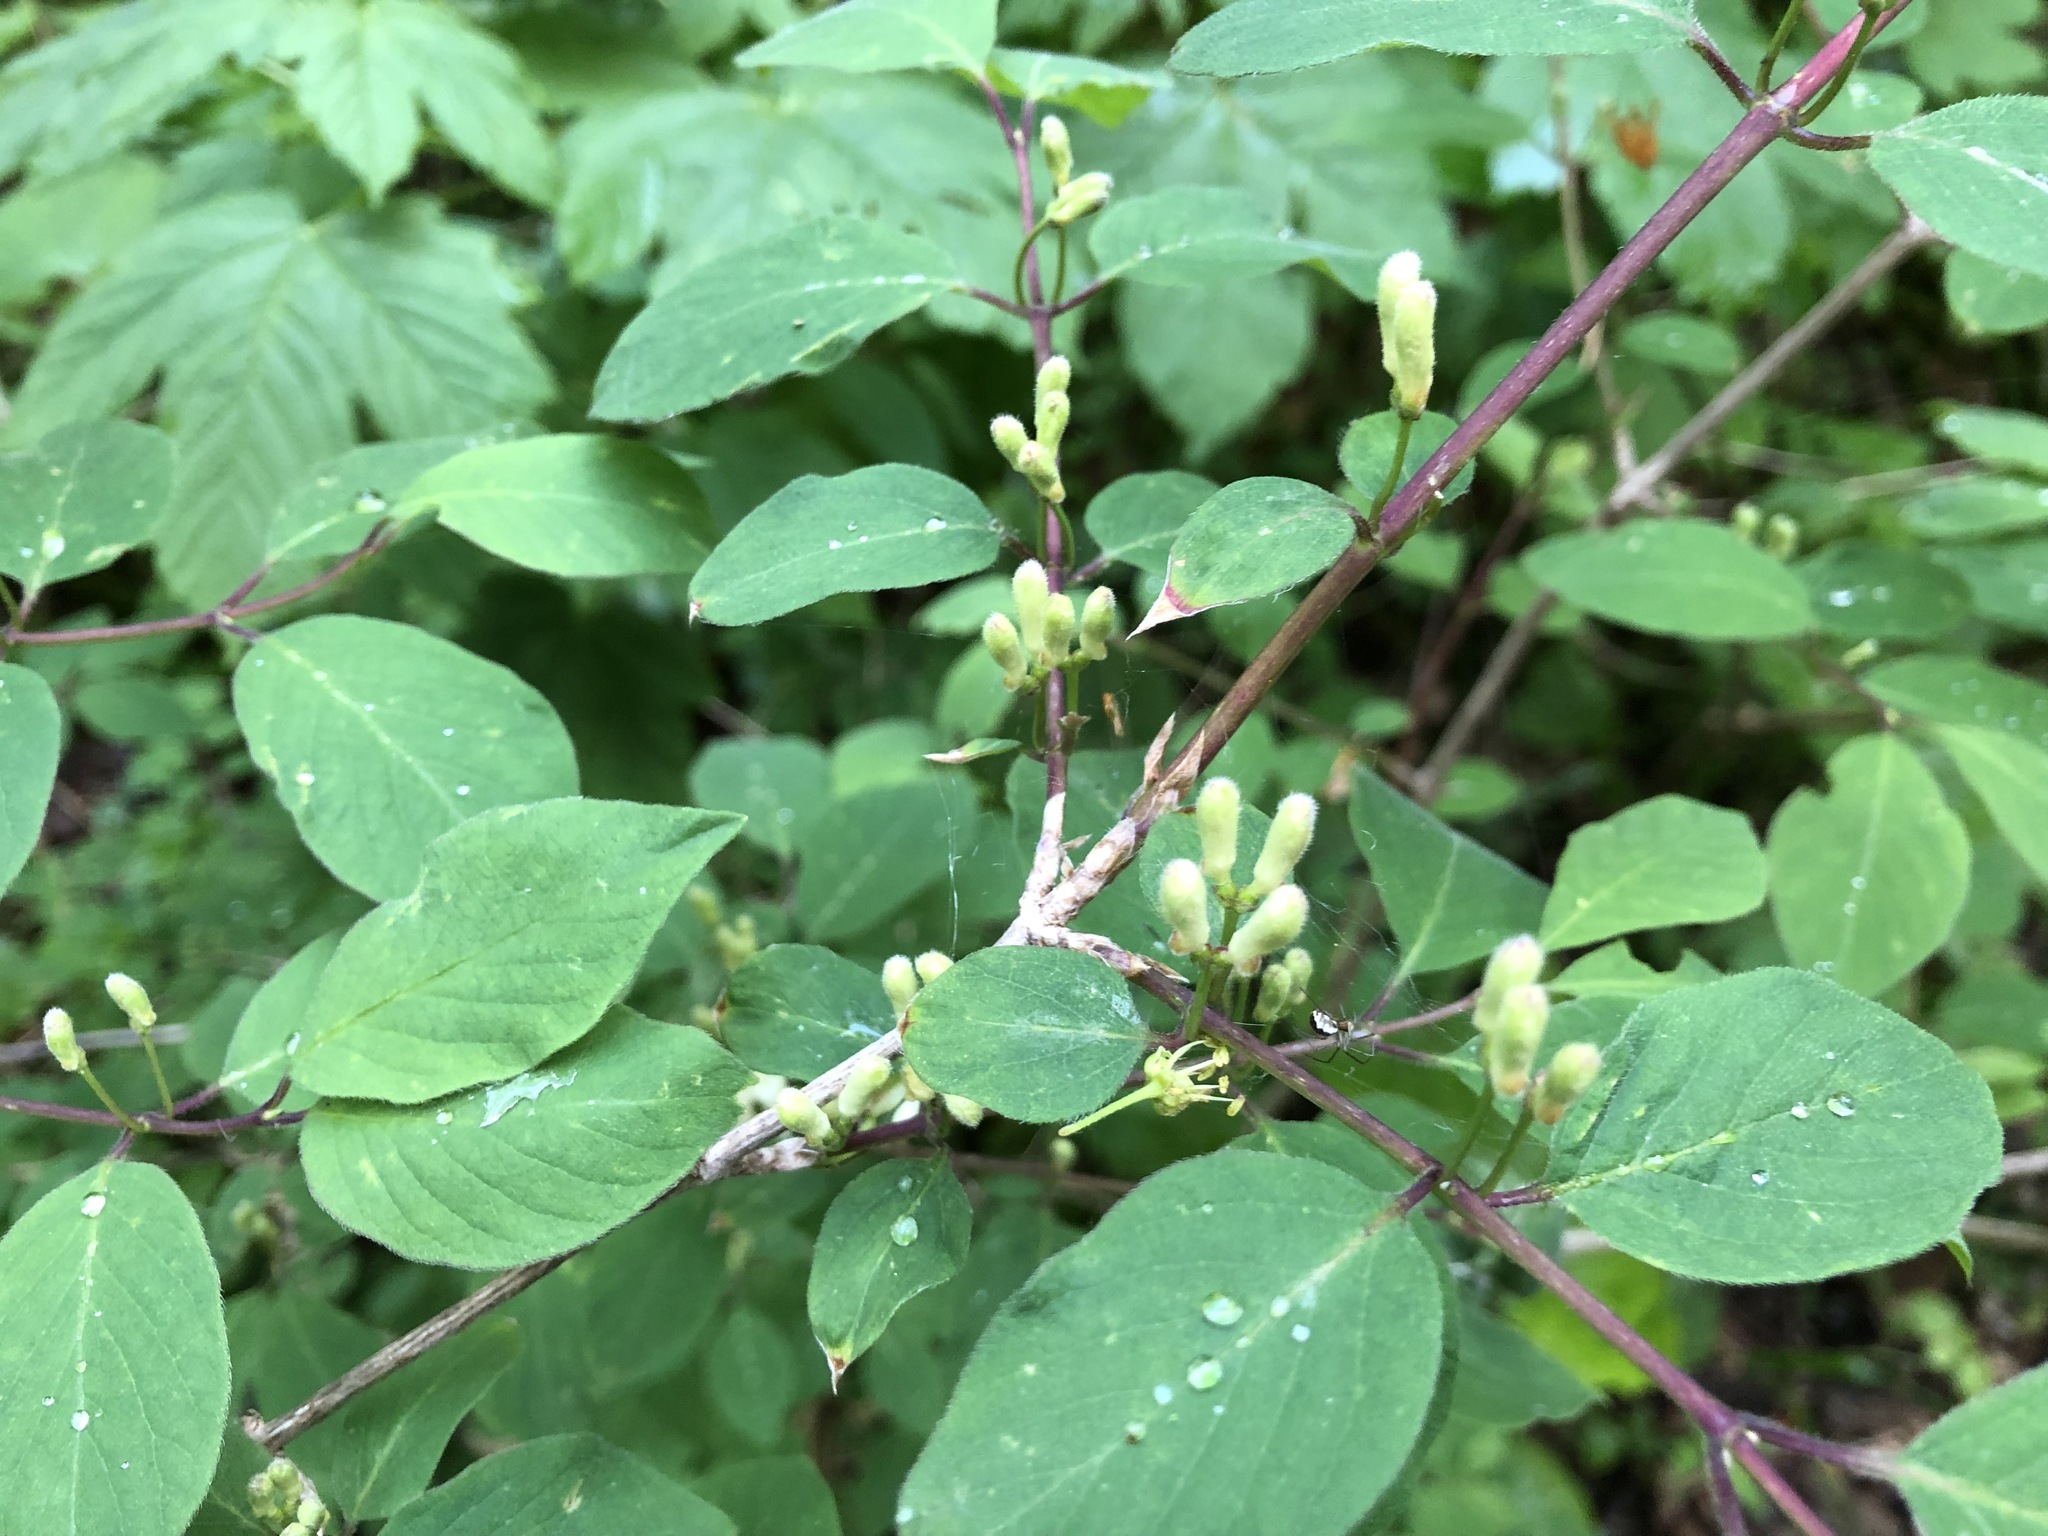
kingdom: Plantae
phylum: Tracheophyta
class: Magnoliopsida
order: Dipsacales
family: Caprifoliaceae
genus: Lonicera
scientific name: Lonicera xylosteum
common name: Fly honeysuckle
